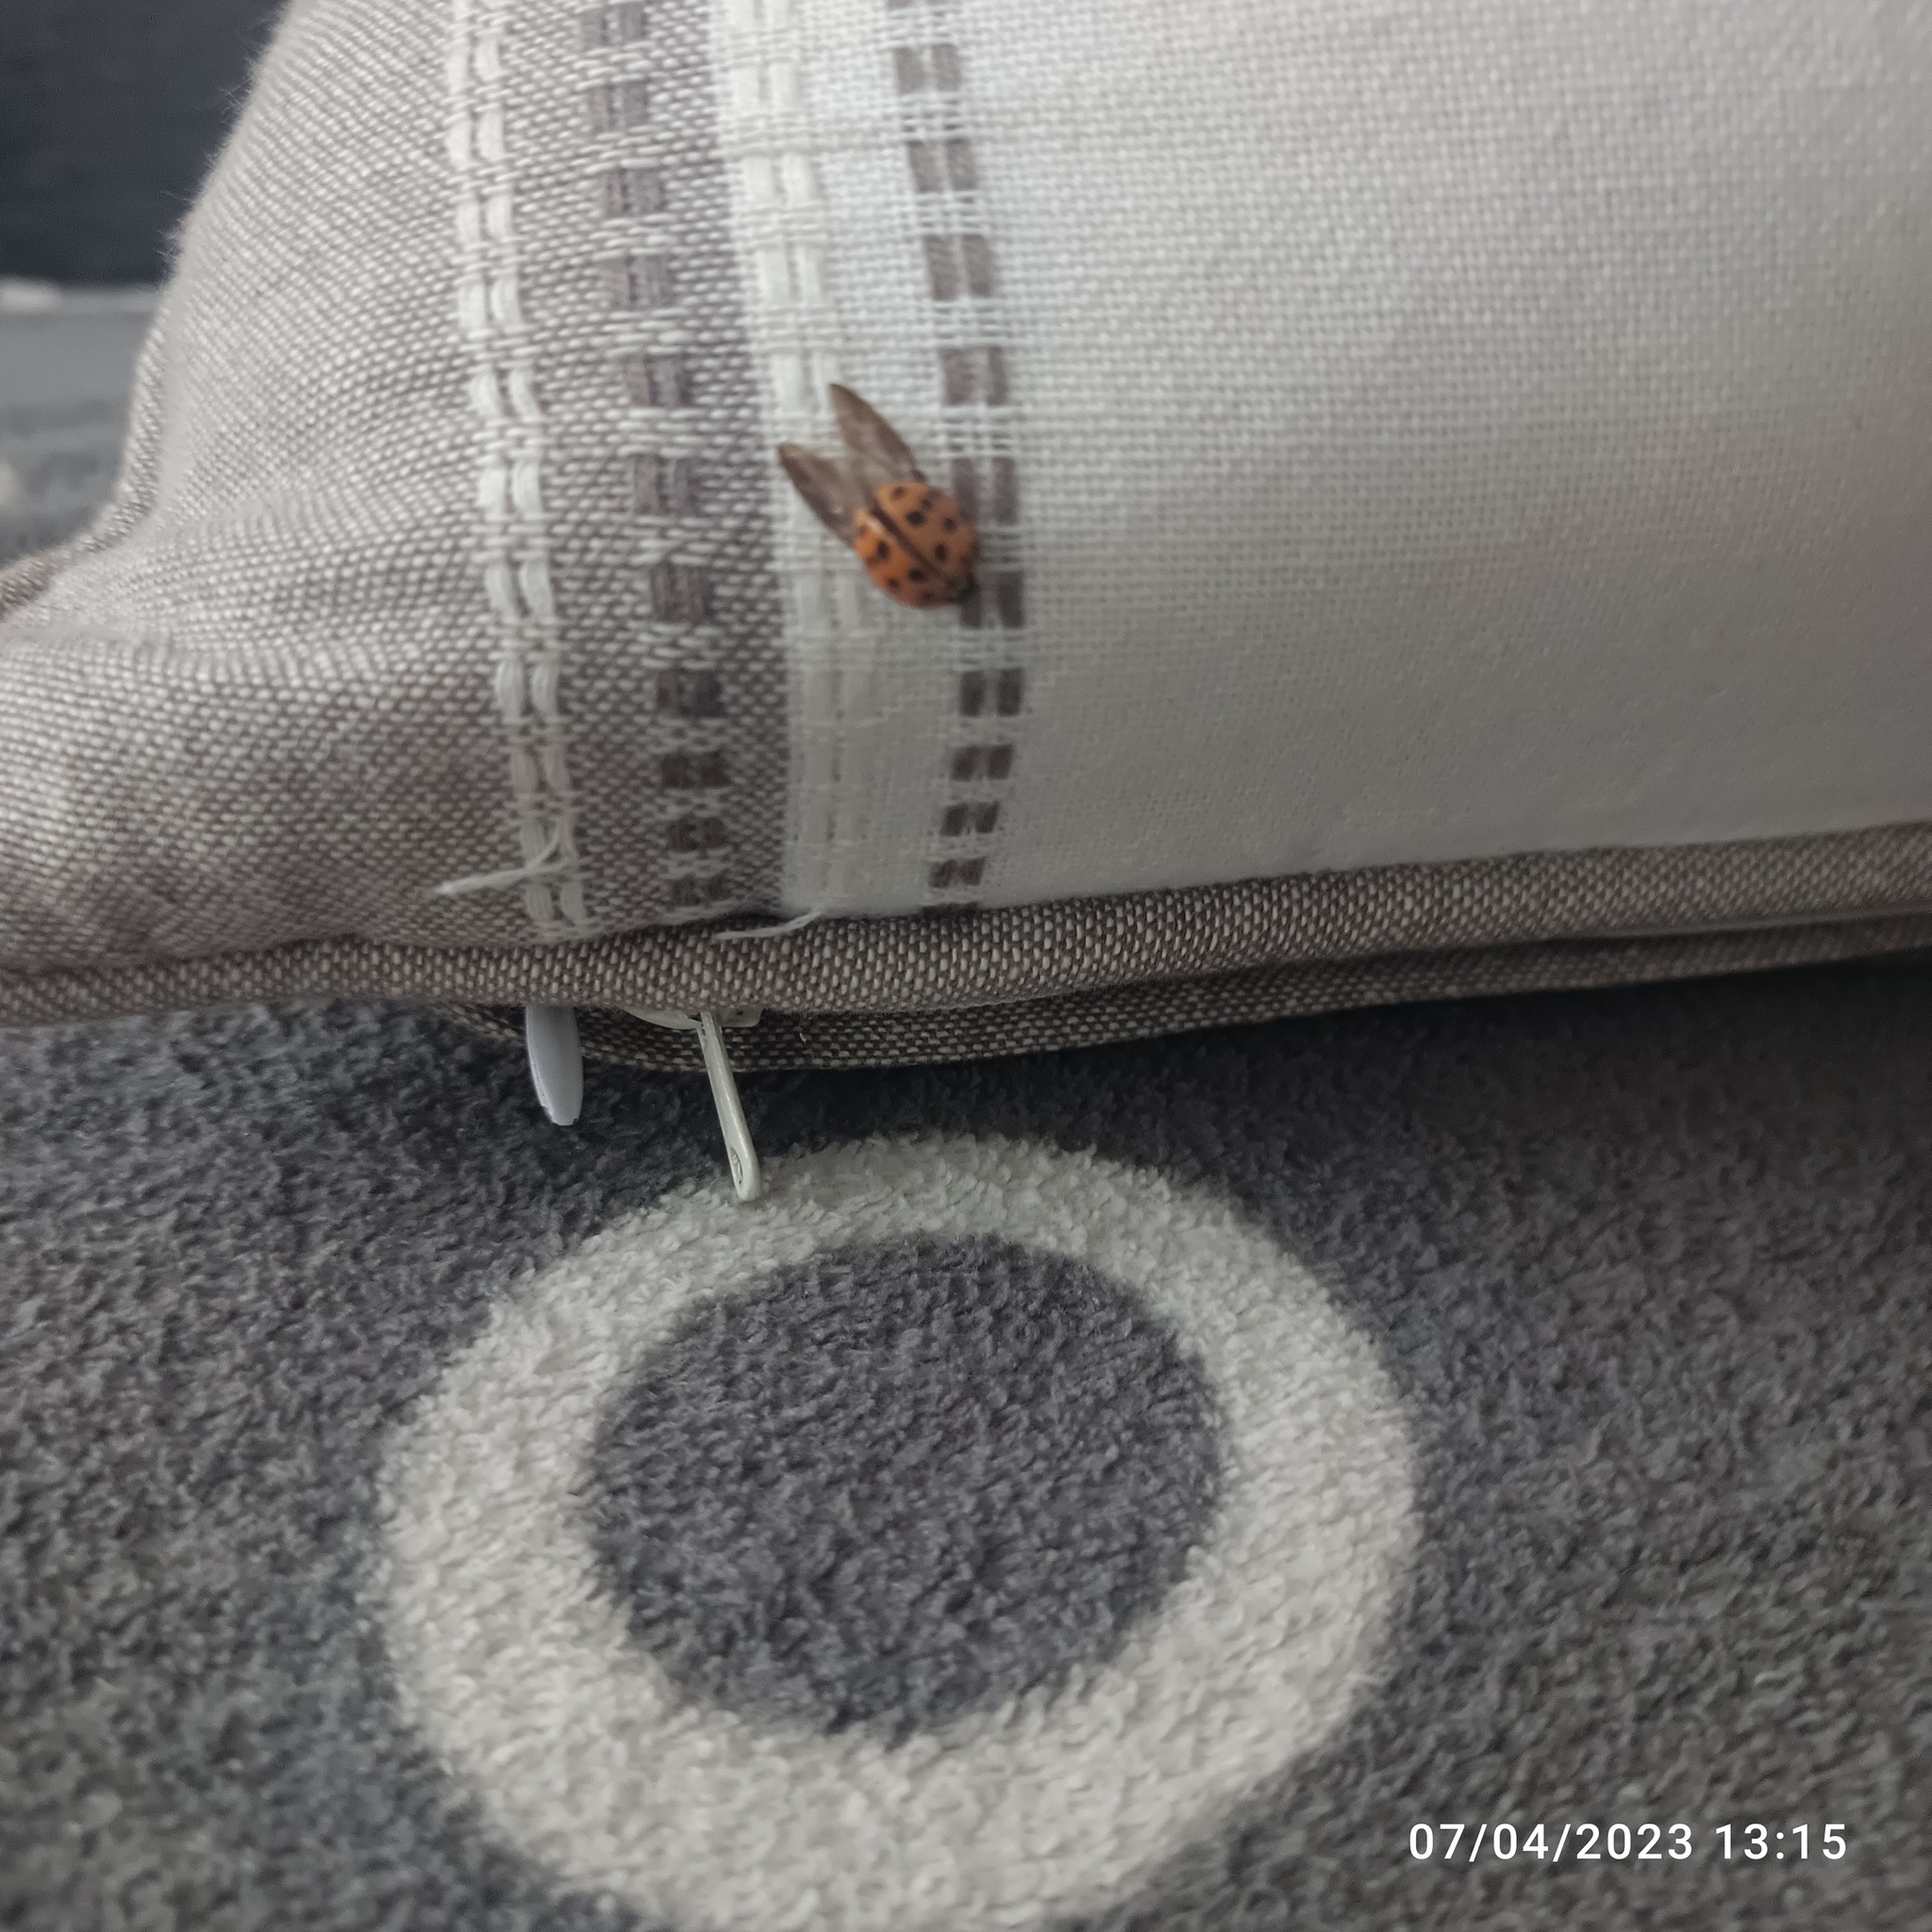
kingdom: Animalia
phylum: Arthropoda
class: Insecta
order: Coleoptera
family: Coccinellidae
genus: Harmonia
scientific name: Harmonia axyridis
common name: Harlequin ladybird
